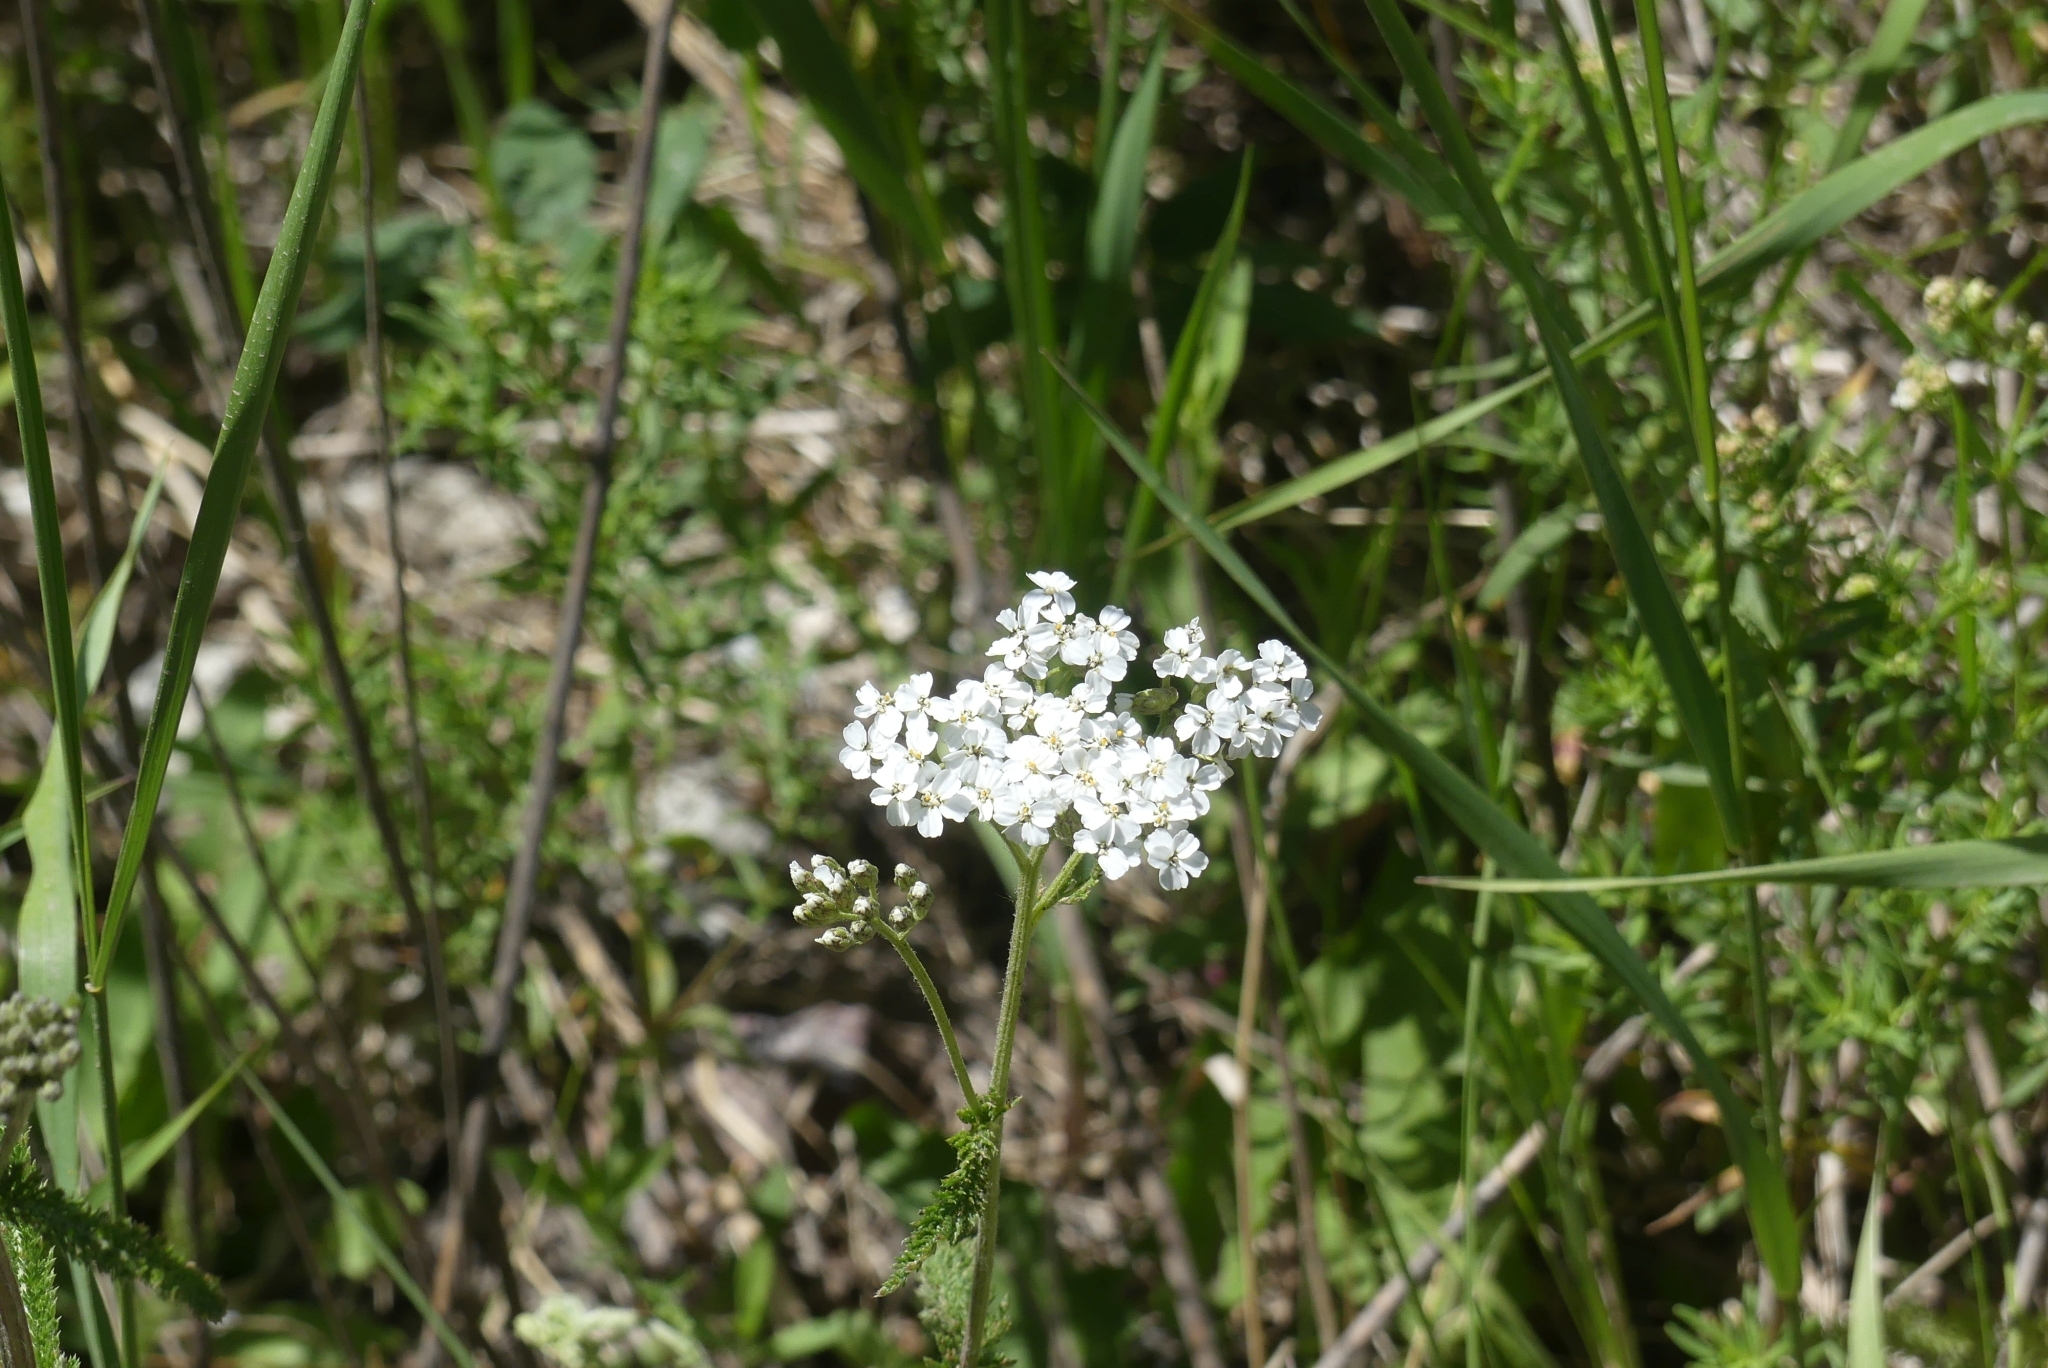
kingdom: Plantae
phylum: Tracheophyta
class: Magnoliopsida
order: Asterales
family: Asteraceae
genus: Achillea
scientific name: Achillea millefolium
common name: Yarrow
